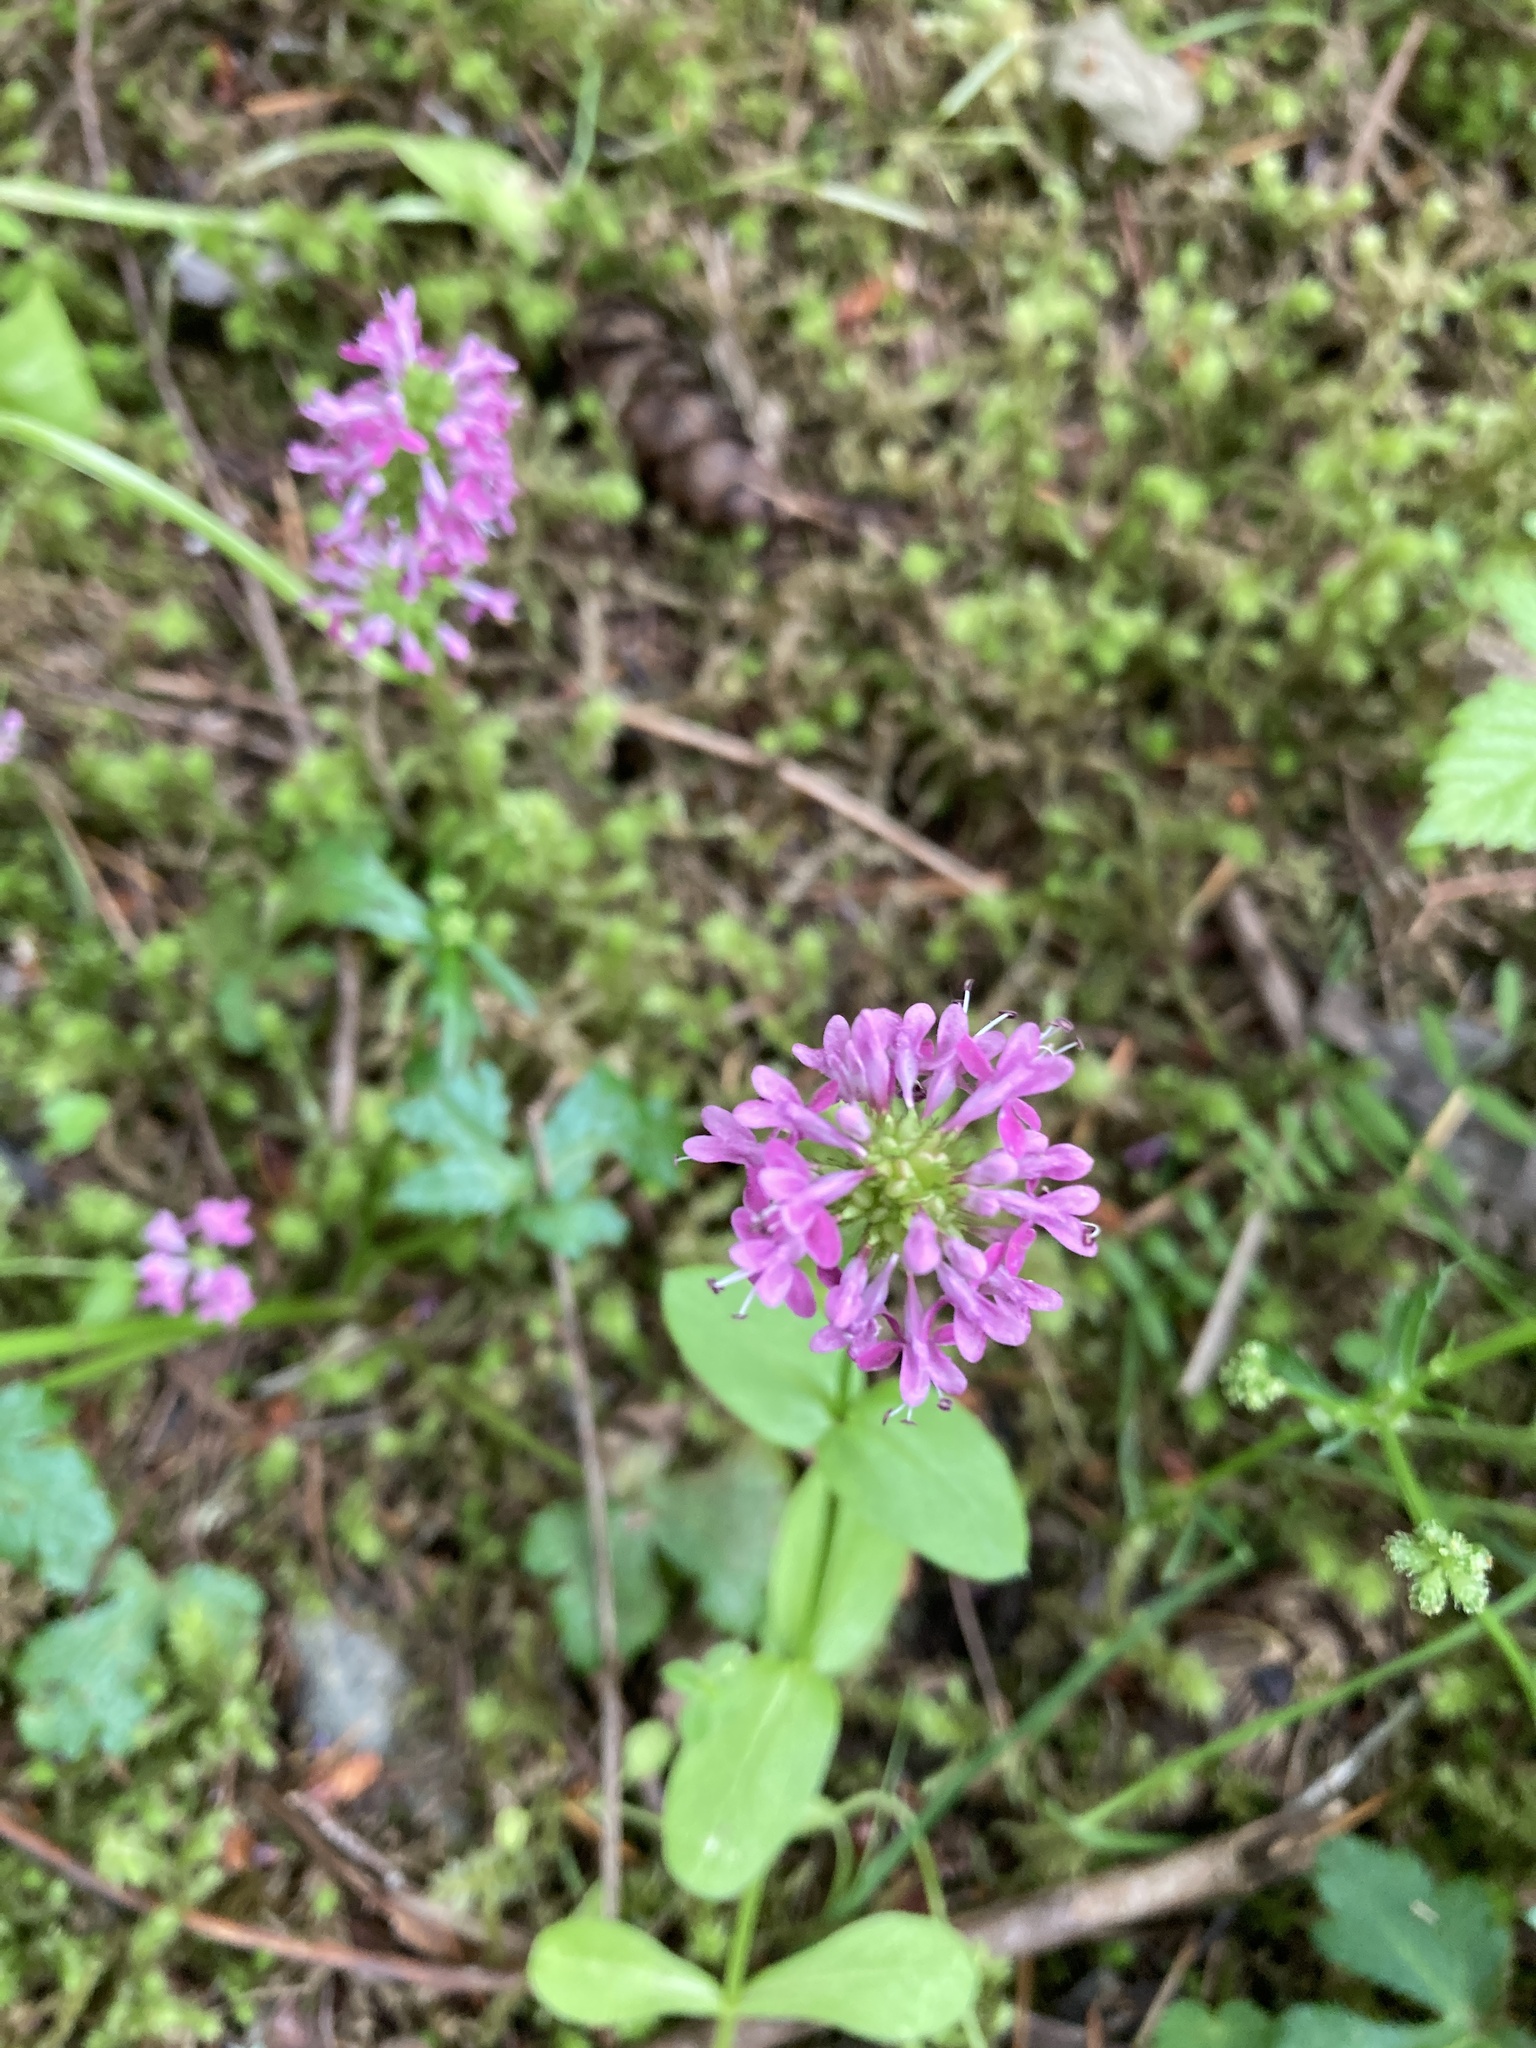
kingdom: Plantae
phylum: Tracheophyta
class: Magnoliopsida
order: Dipsacales
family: Caprifoliaceae
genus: Plectritis
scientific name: Plectritis congesta
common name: Pink plectritis
